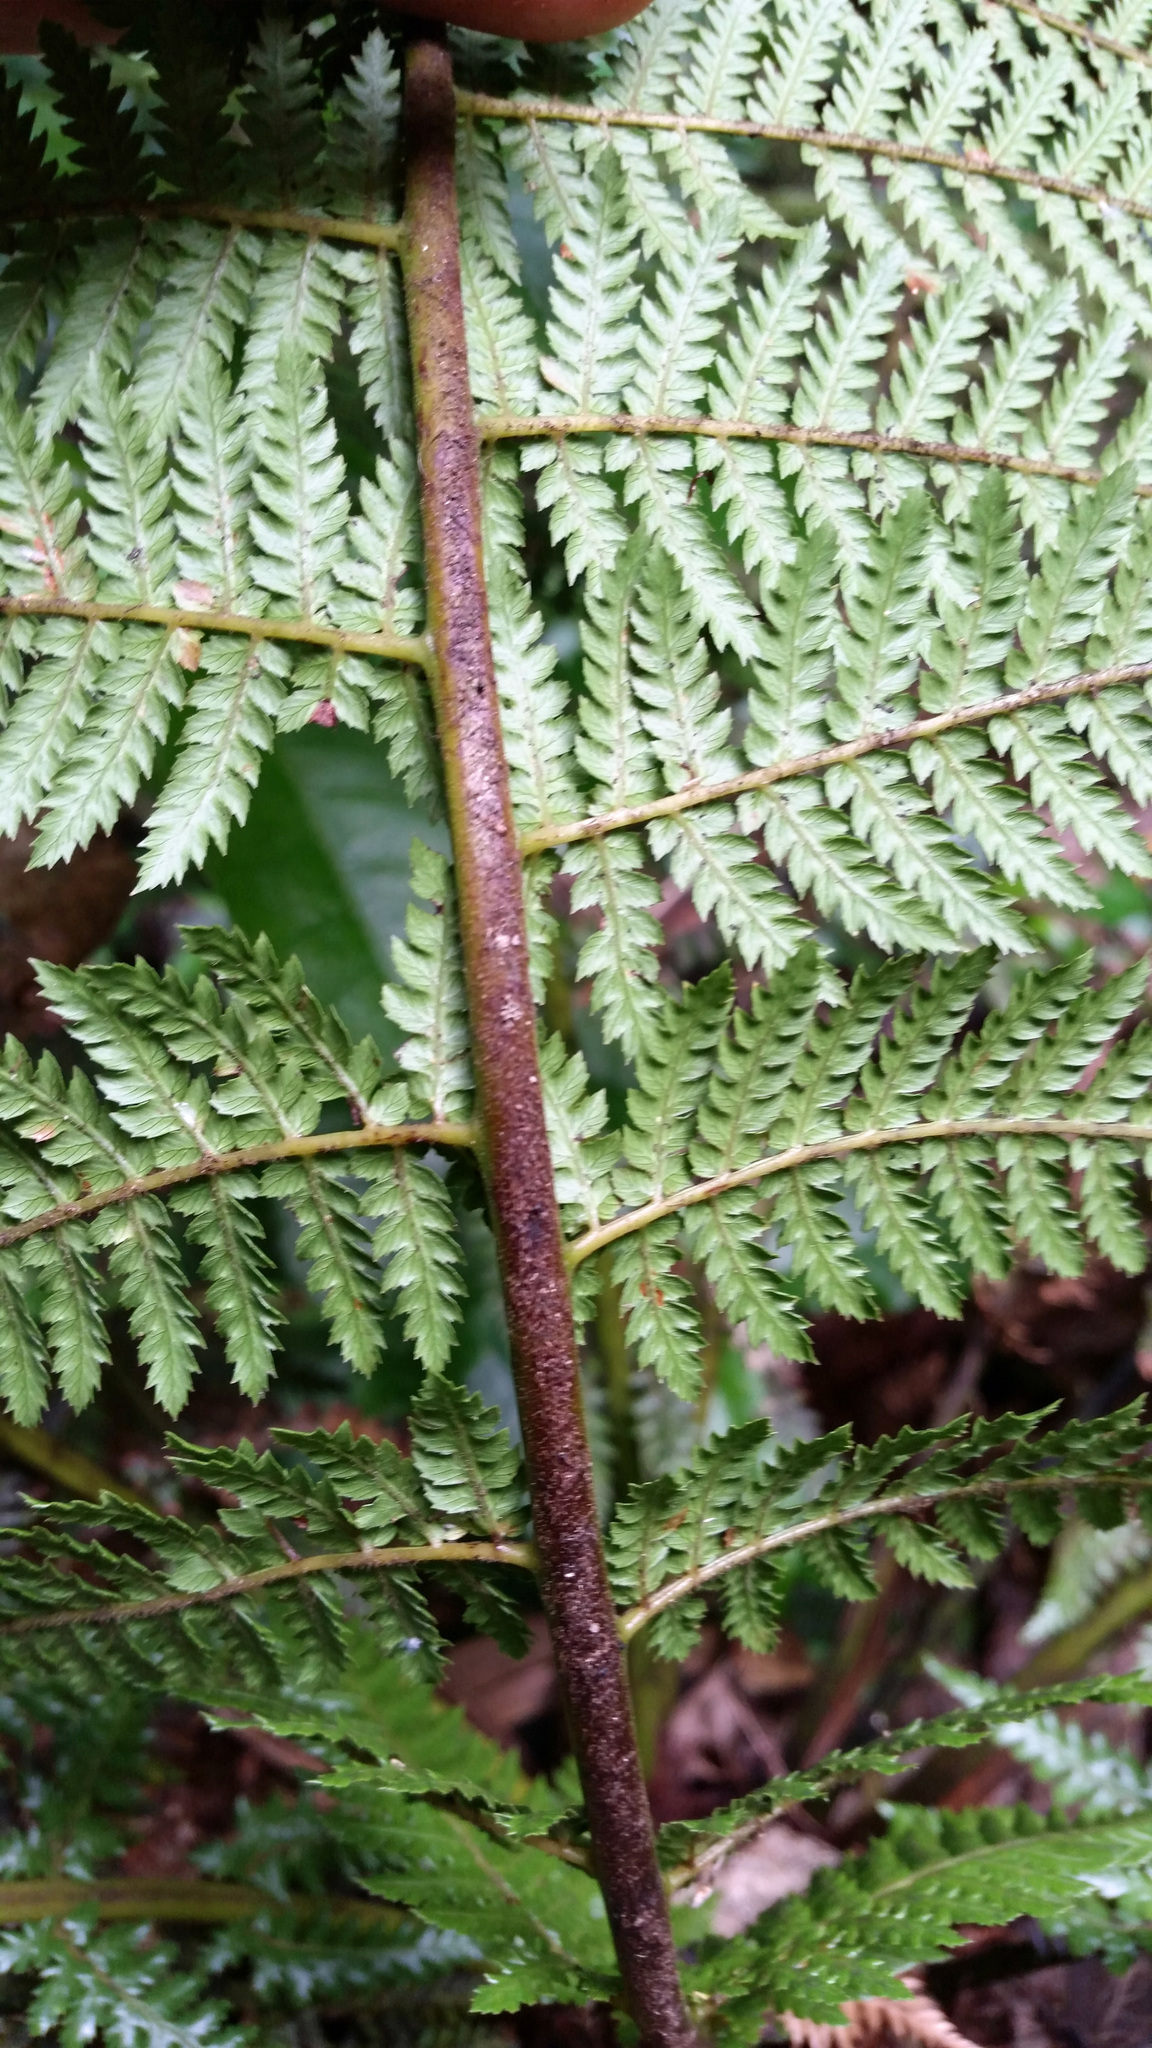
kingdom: Plantae
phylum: Tracheophyta
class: Polypodiopsida
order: Cyatheales
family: Dicksoniaceae
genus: Dicksonia
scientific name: Dicksonia fibrosa
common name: Golden tree fern
